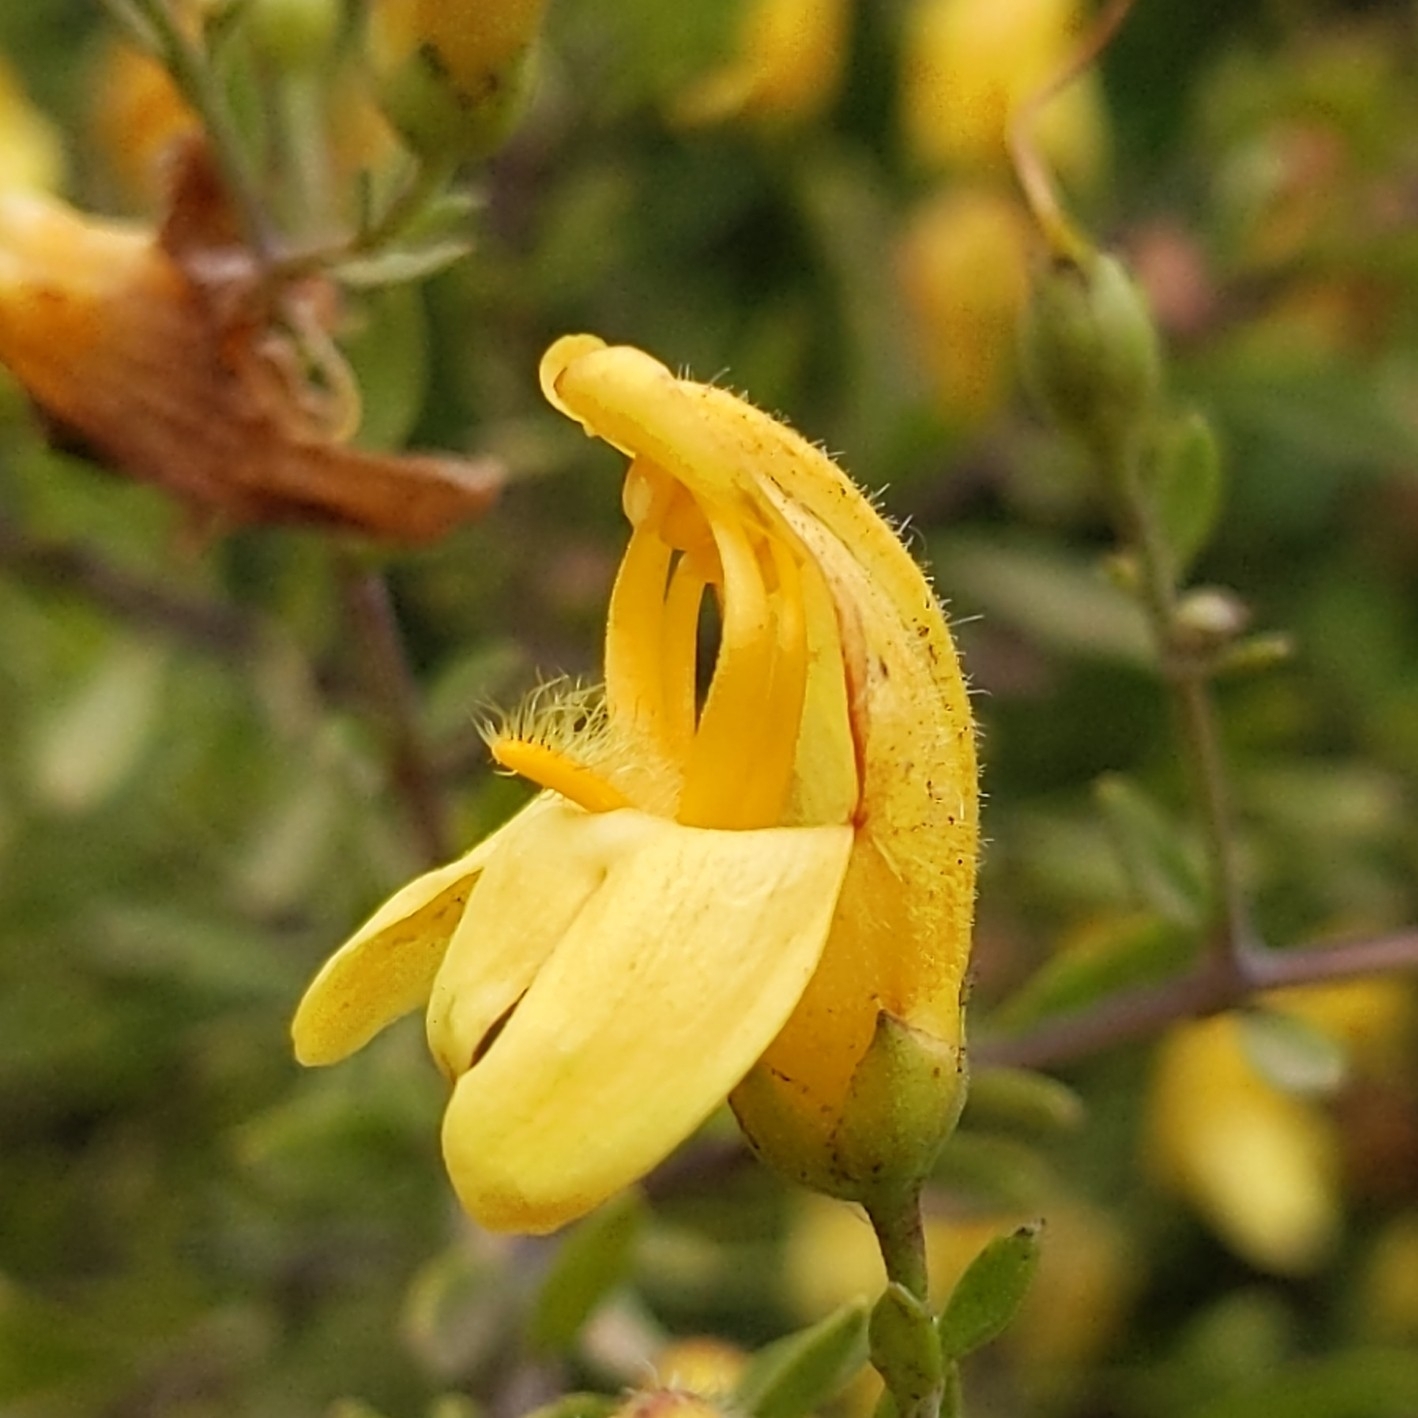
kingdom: Plantae
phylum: Tracheophyta
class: Magnoliopsida
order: Lamiales
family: Plantaginaceae
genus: Keckiella
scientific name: Keckiella antirrhinoides
